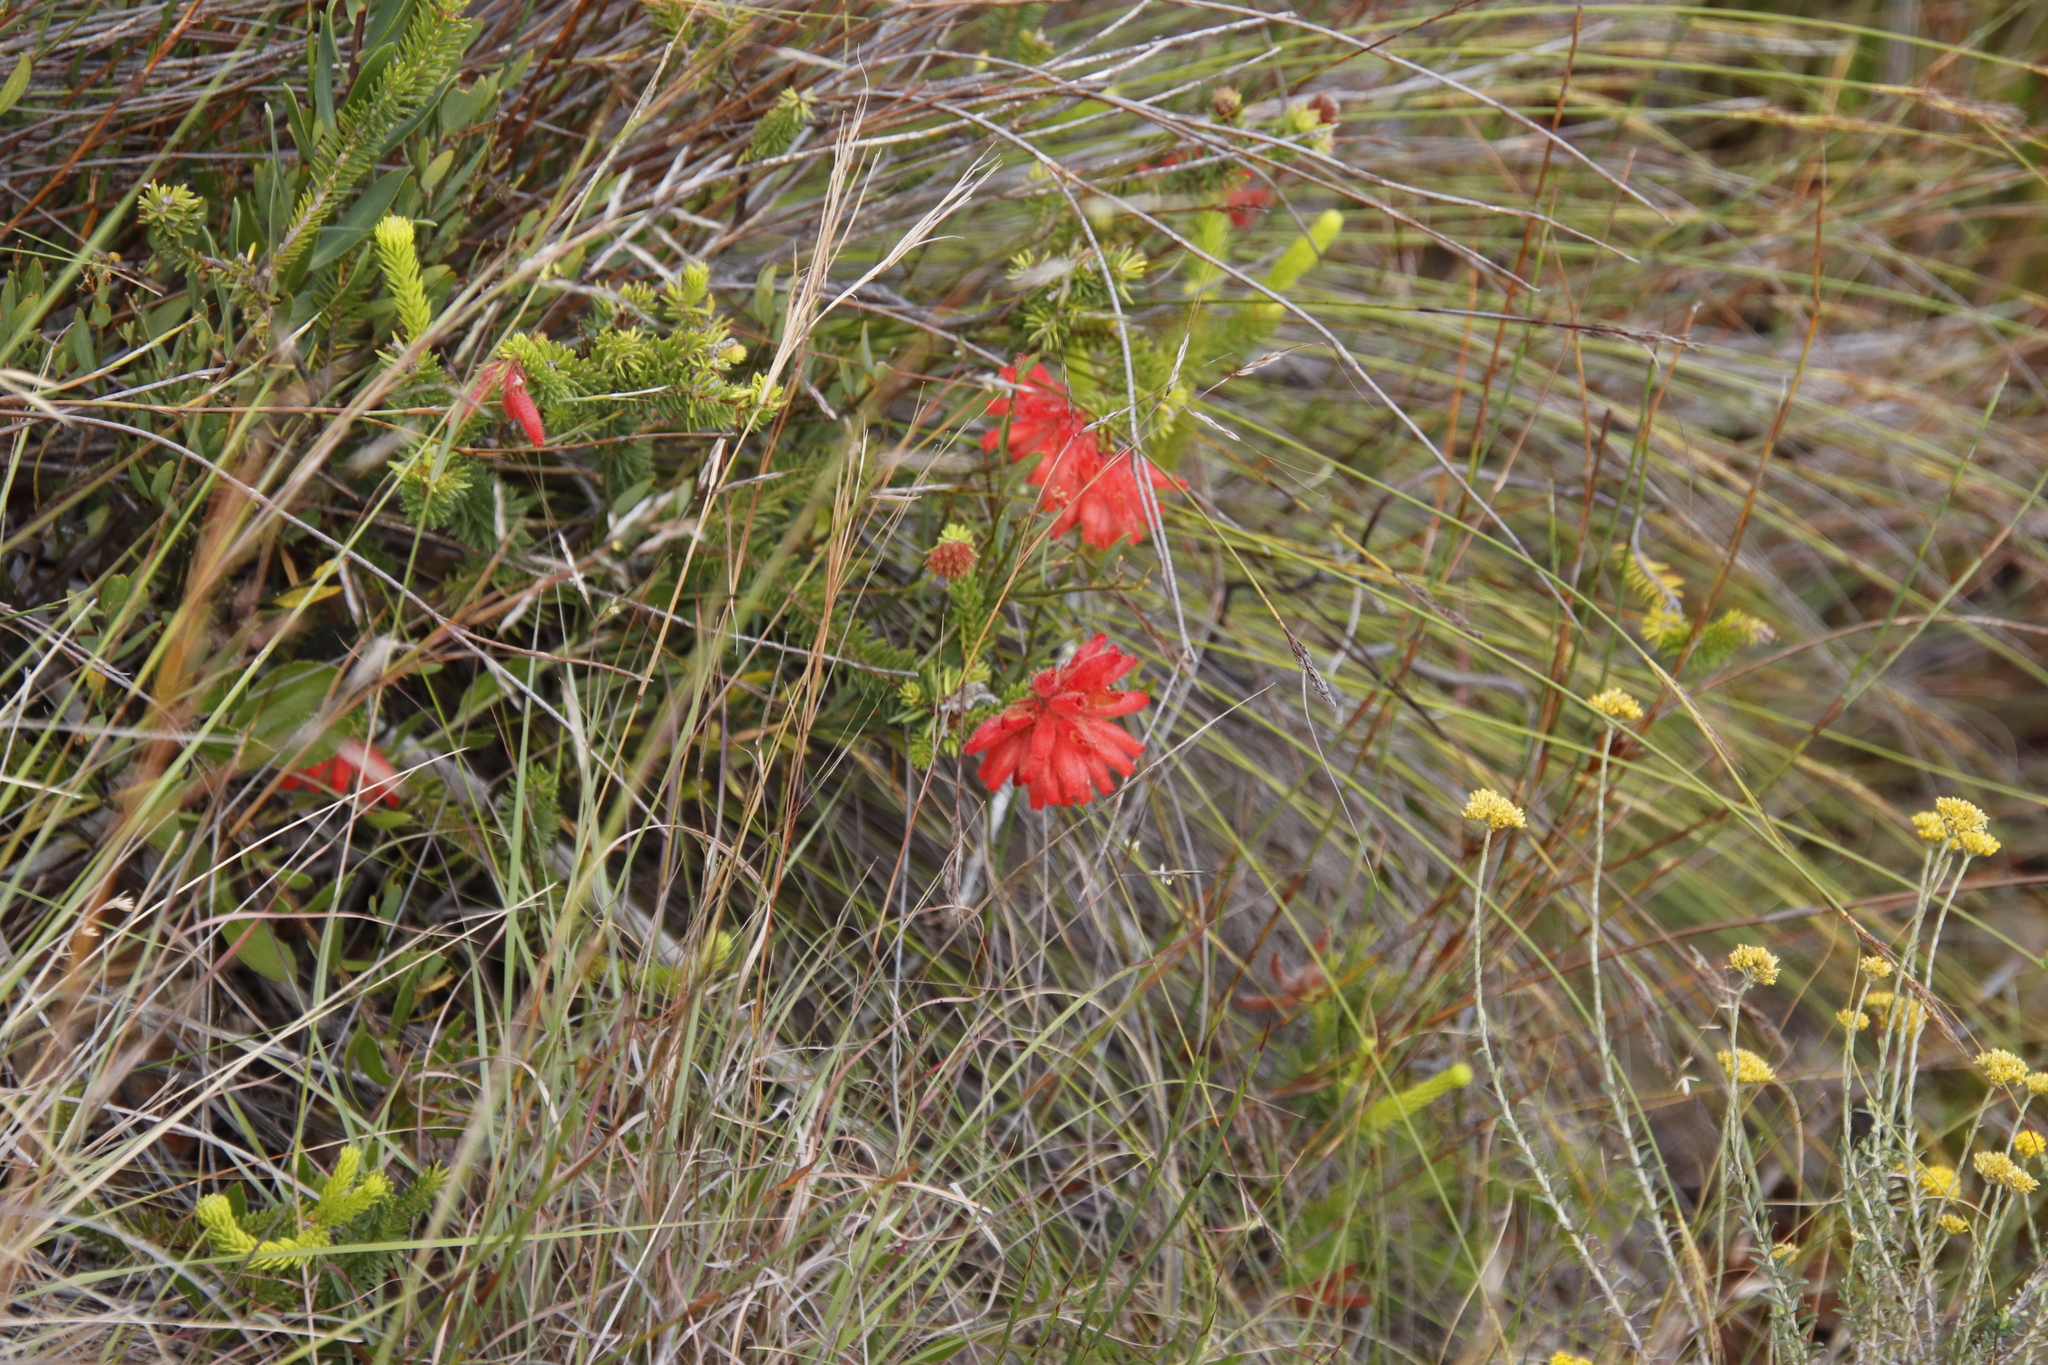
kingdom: Plantae
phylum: Tracheophyta
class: Magnoliopsida
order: Ericales
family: Ericaceae
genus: Erica
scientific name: Erica cerinthoides
